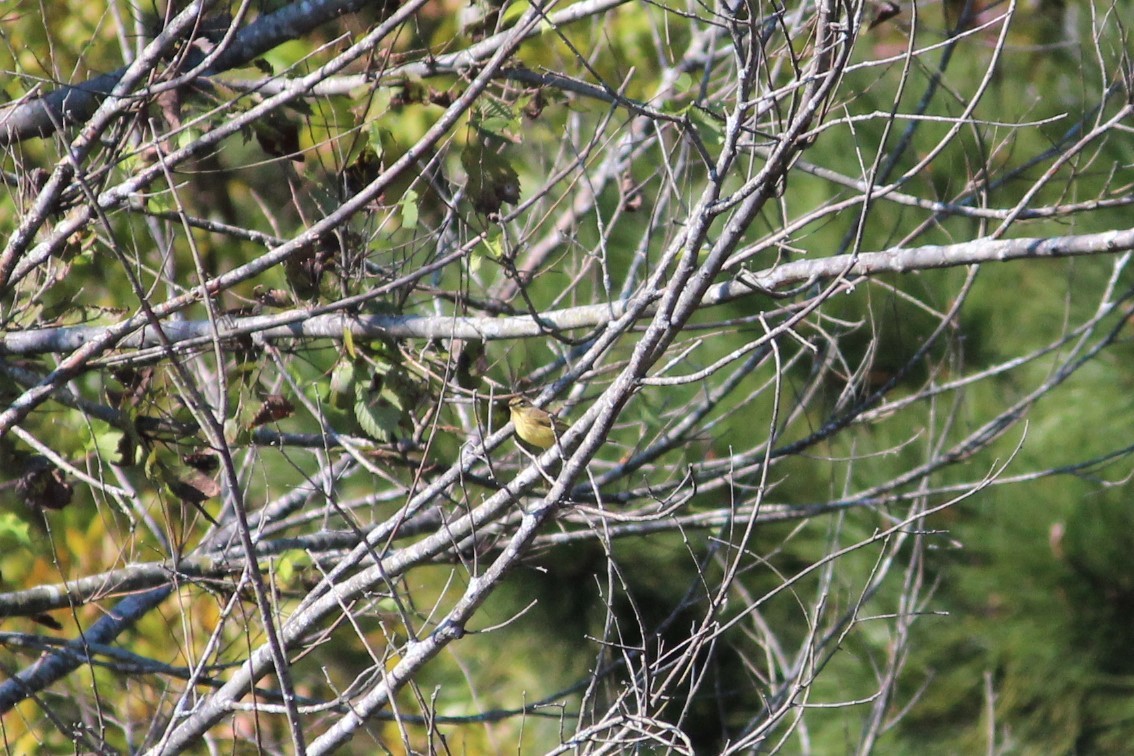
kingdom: Animalia
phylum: Chordata
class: Aves
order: Passeriformes
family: Parulidae
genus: Setophaga
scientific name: Setophaga palmarum
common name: Palm warbler
